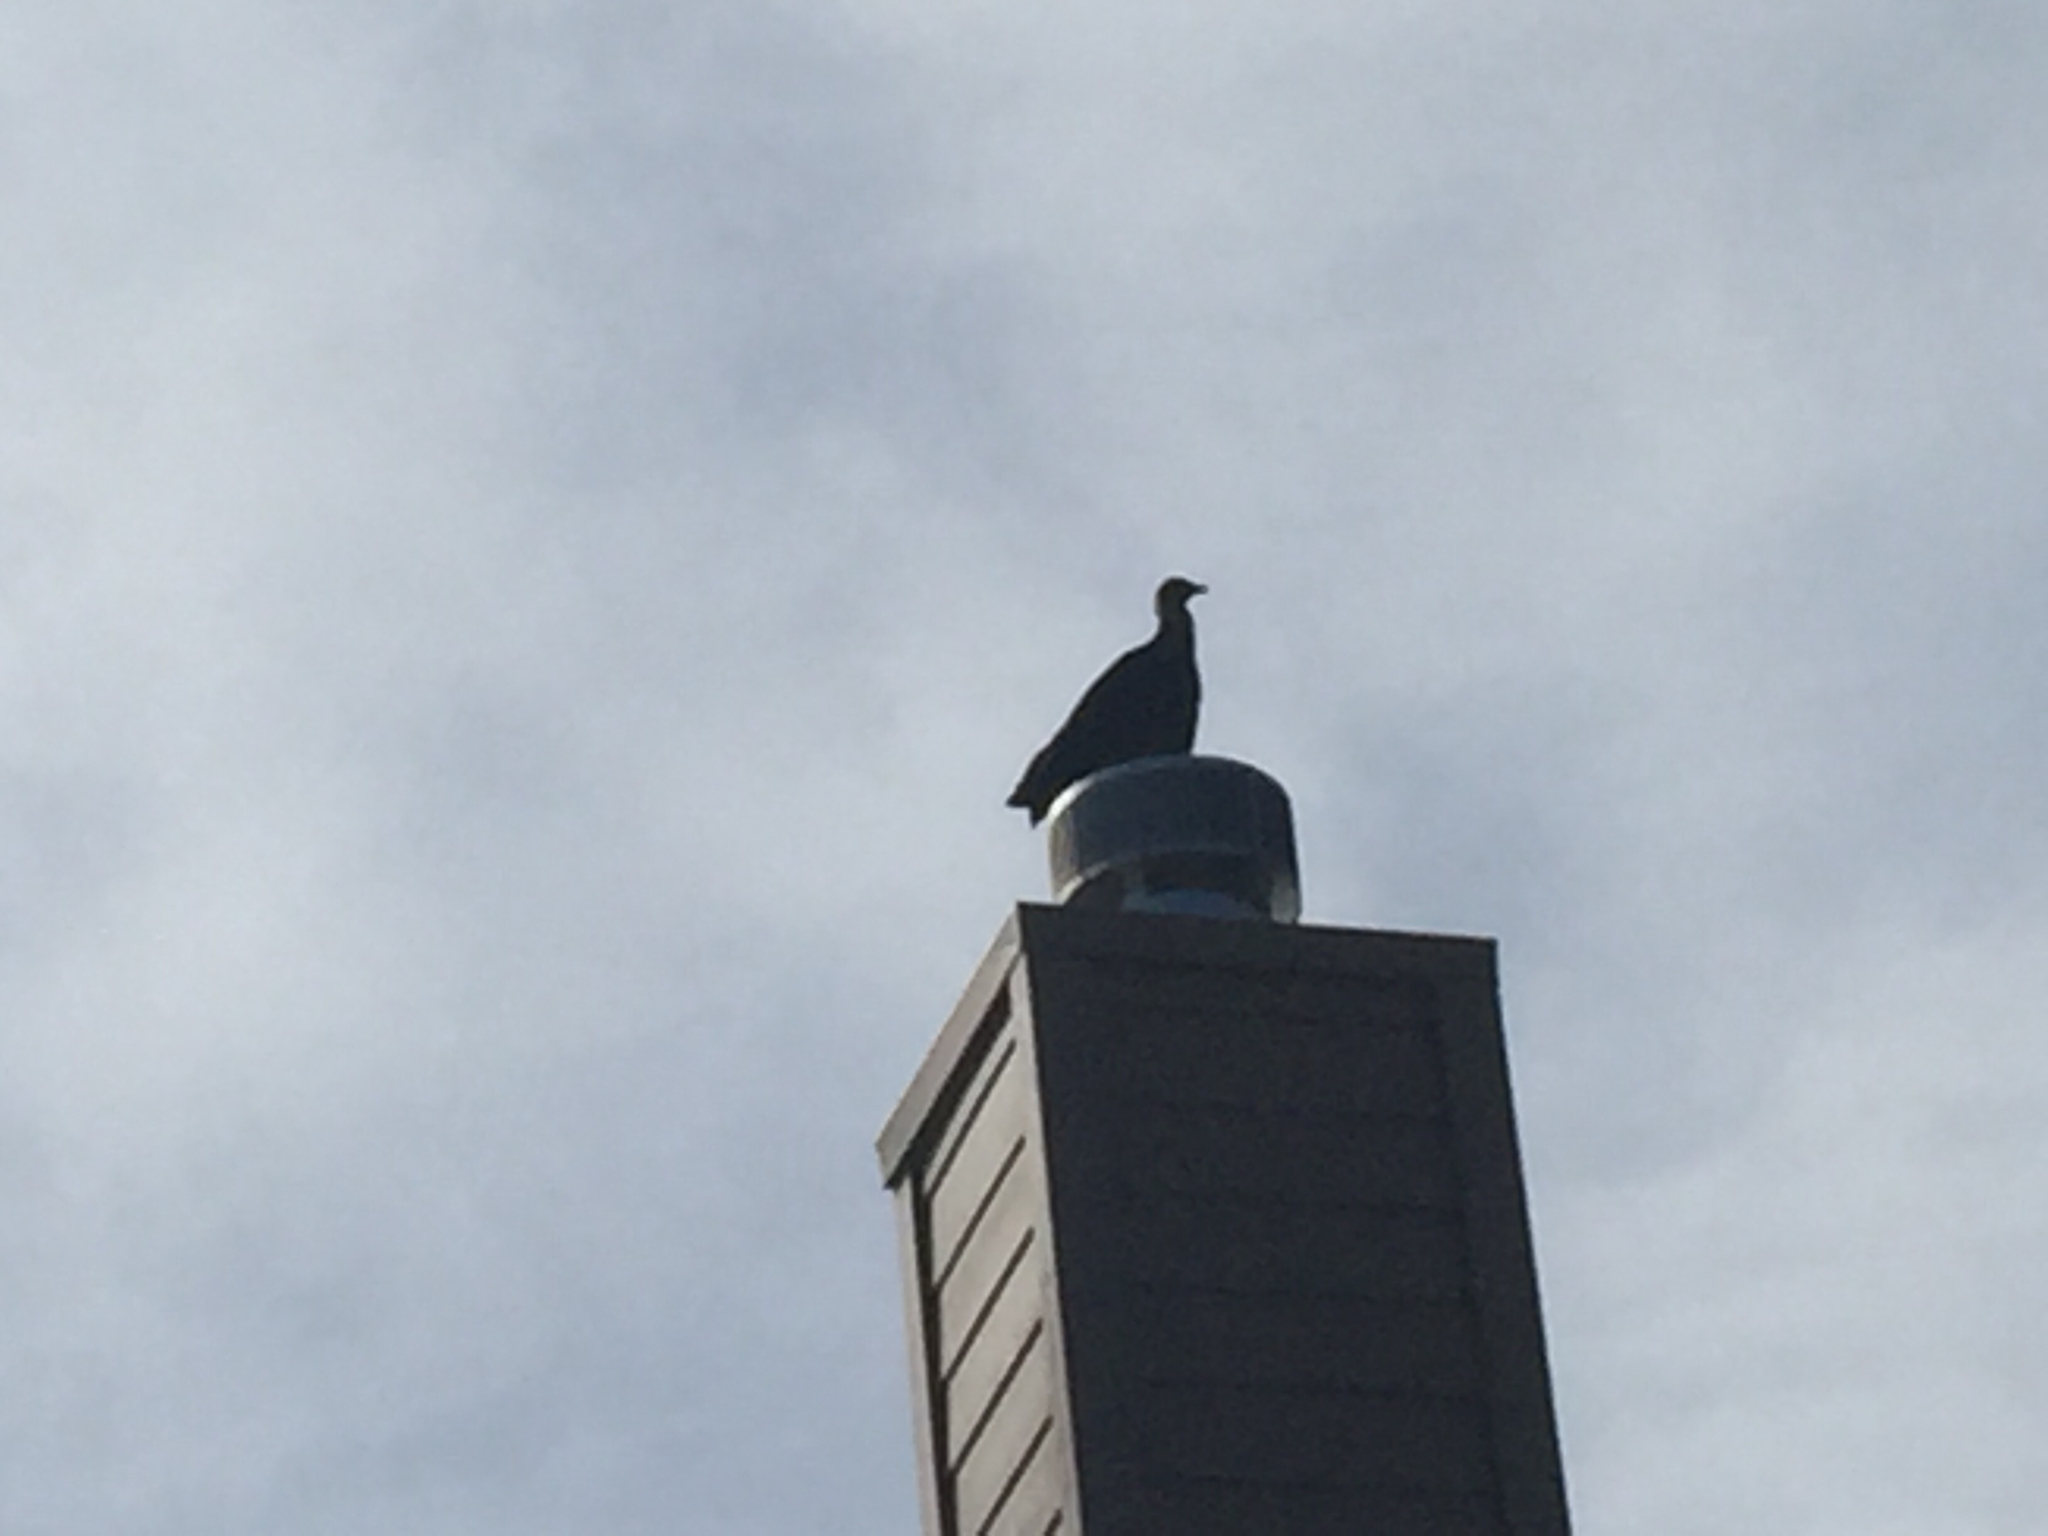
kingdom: Animalia
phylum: Chordata
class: Aves
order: Accipitriformes
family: Cathartidae
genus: Coragyps
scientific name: Coragyps atratus
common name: Black vulture
